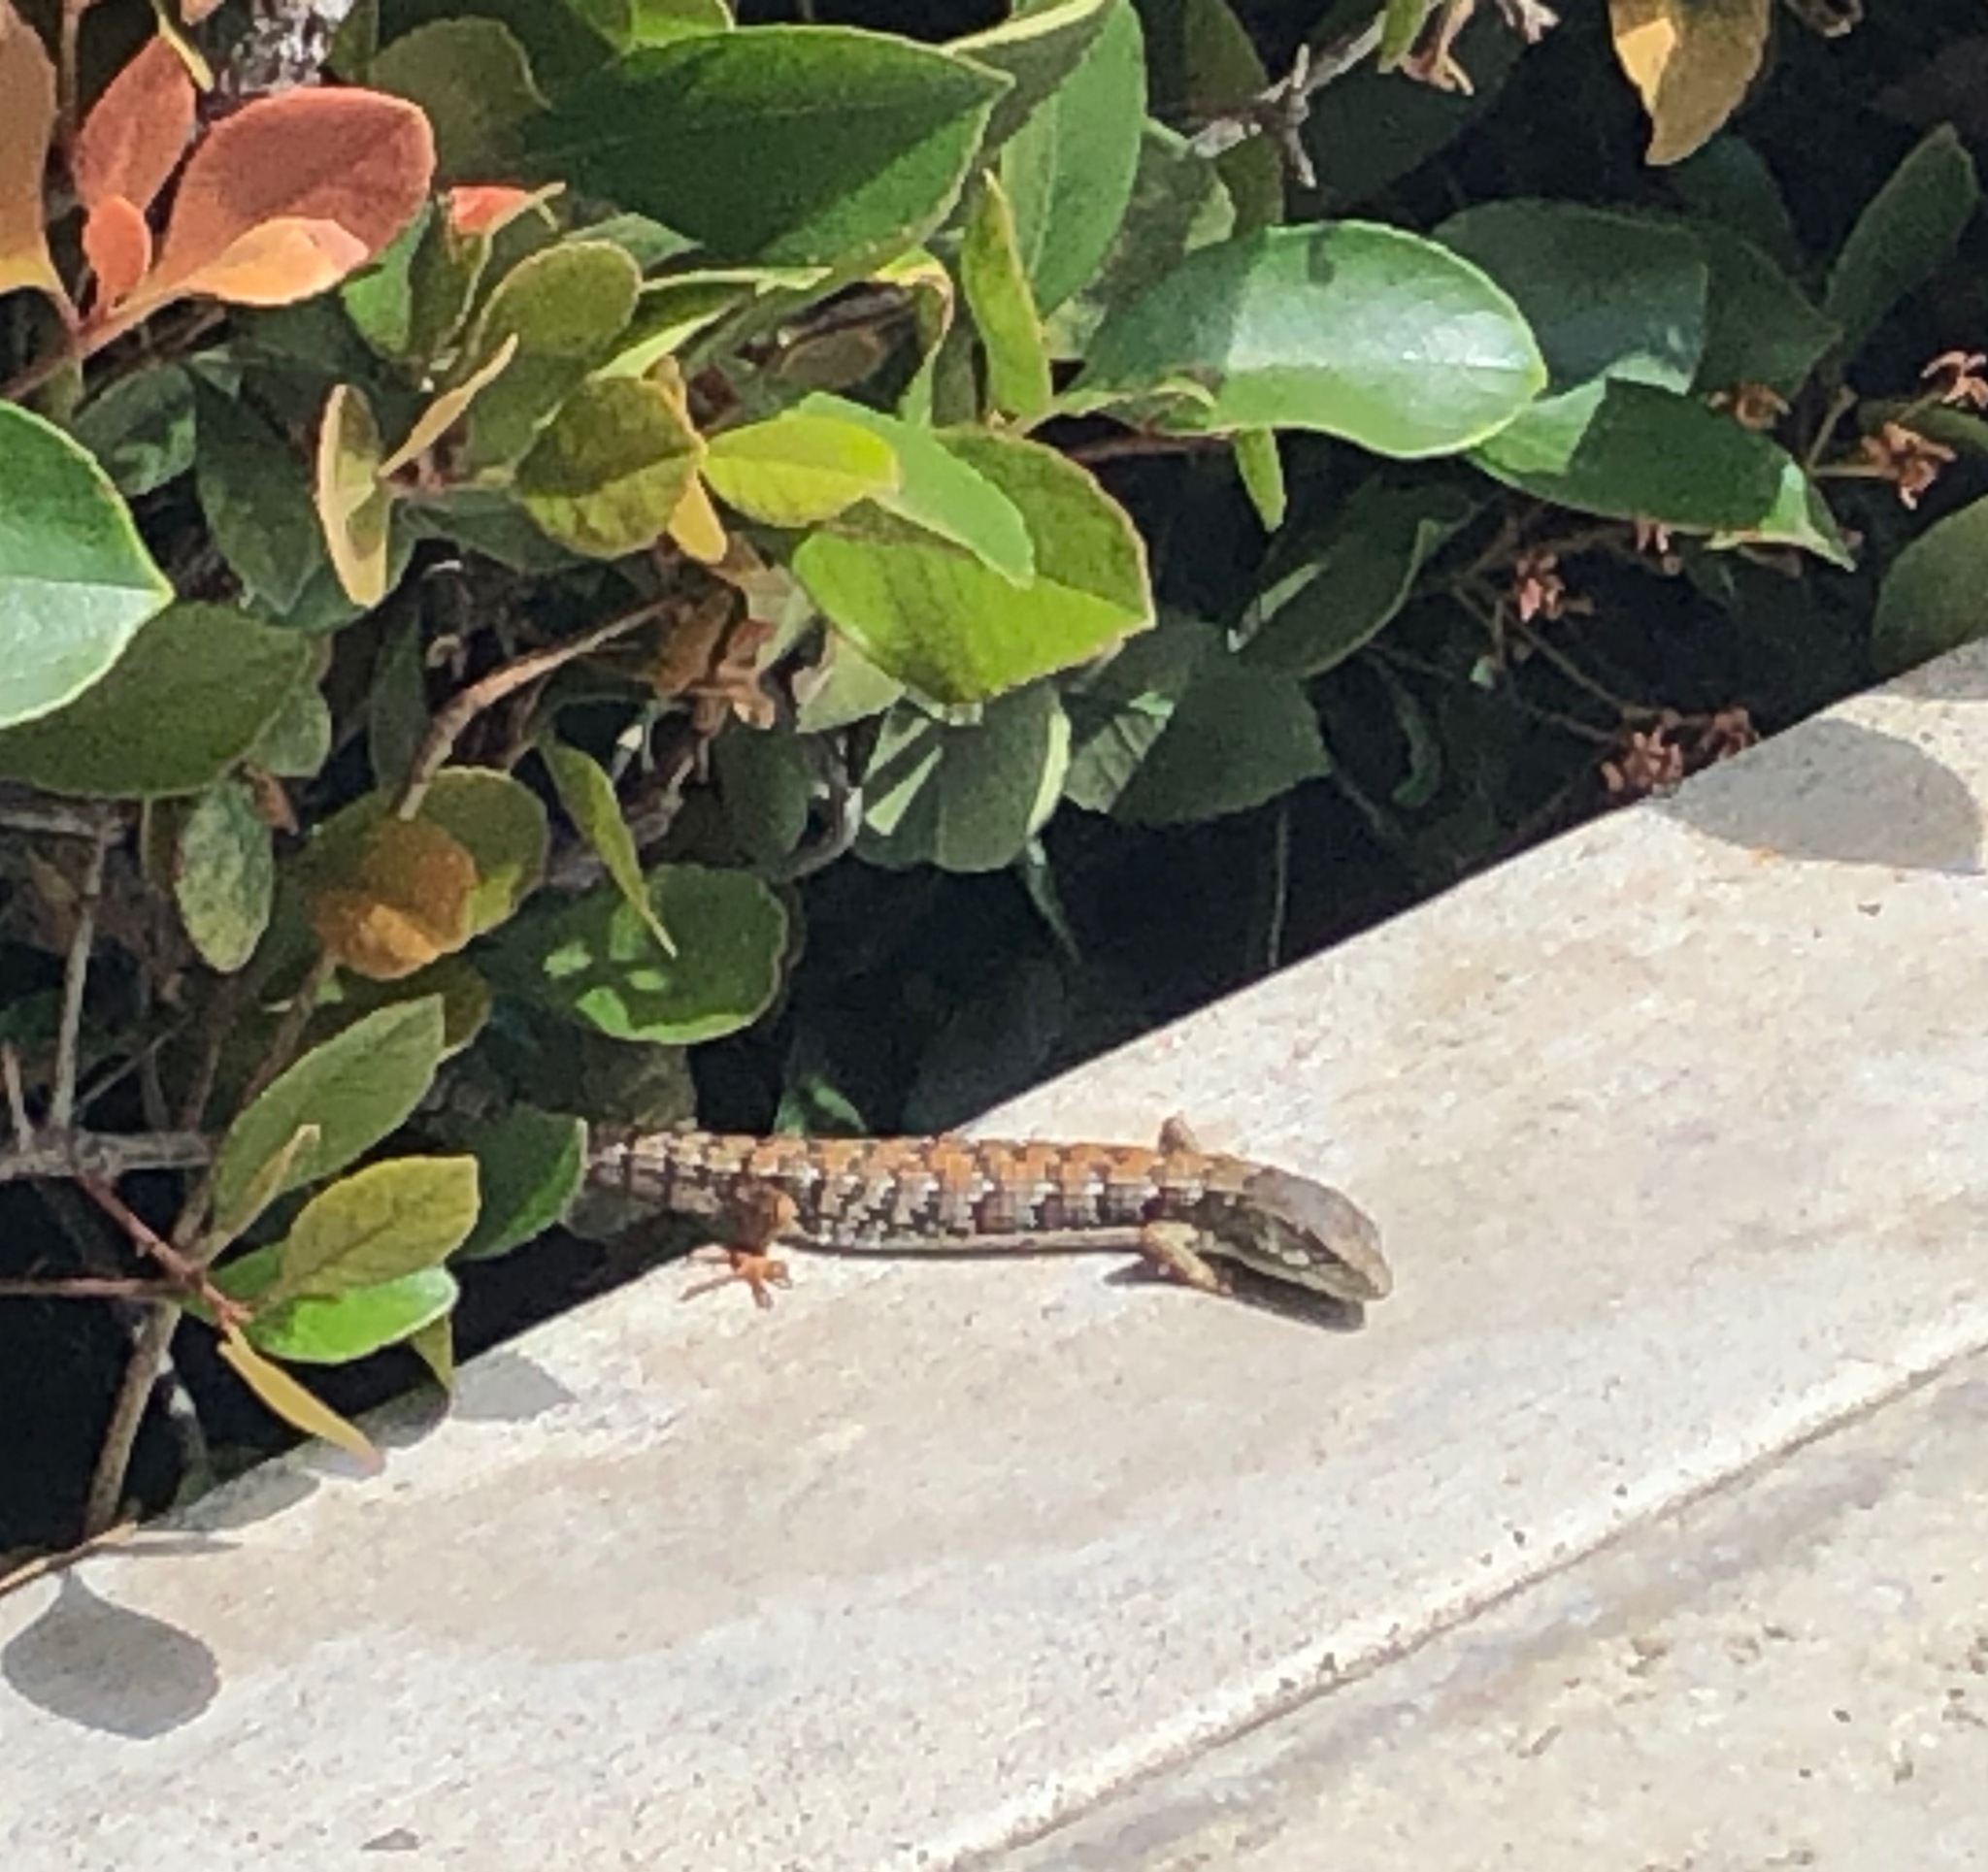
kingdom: Animalia
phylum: Chordata
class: Squamata
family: Anguidae
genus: Elgaria
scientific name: Elgaria multicarinata
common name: Southern alligator lizard
